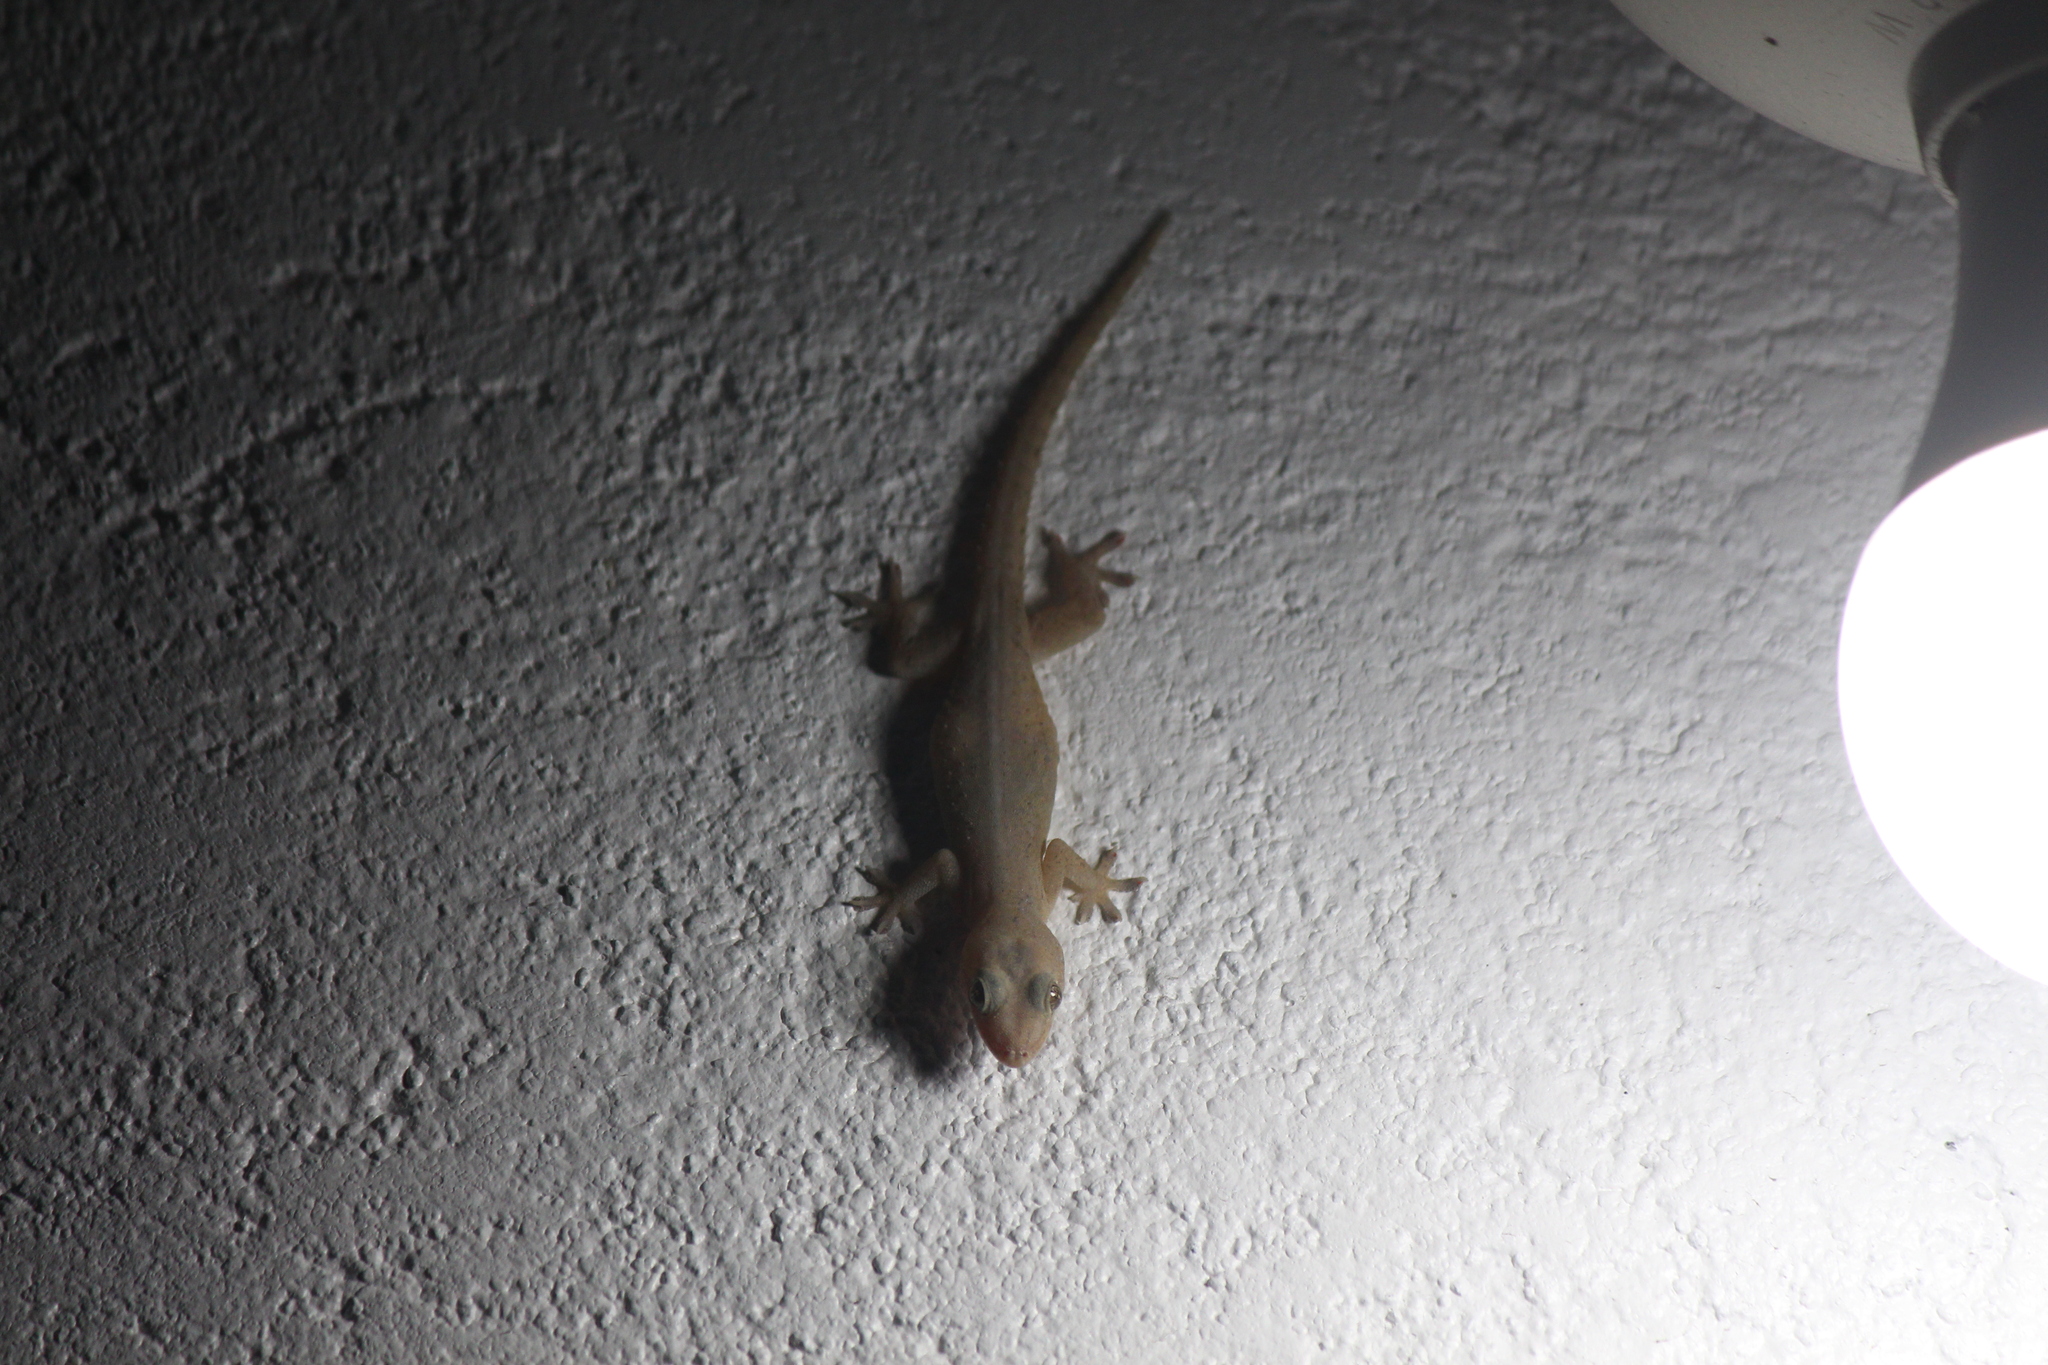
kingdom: Animalia
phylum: Chordata
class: Squamata
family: Gekkonidae
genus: Hemidactylus
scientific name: Hemidactylus frenatus
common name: Common house gecko
